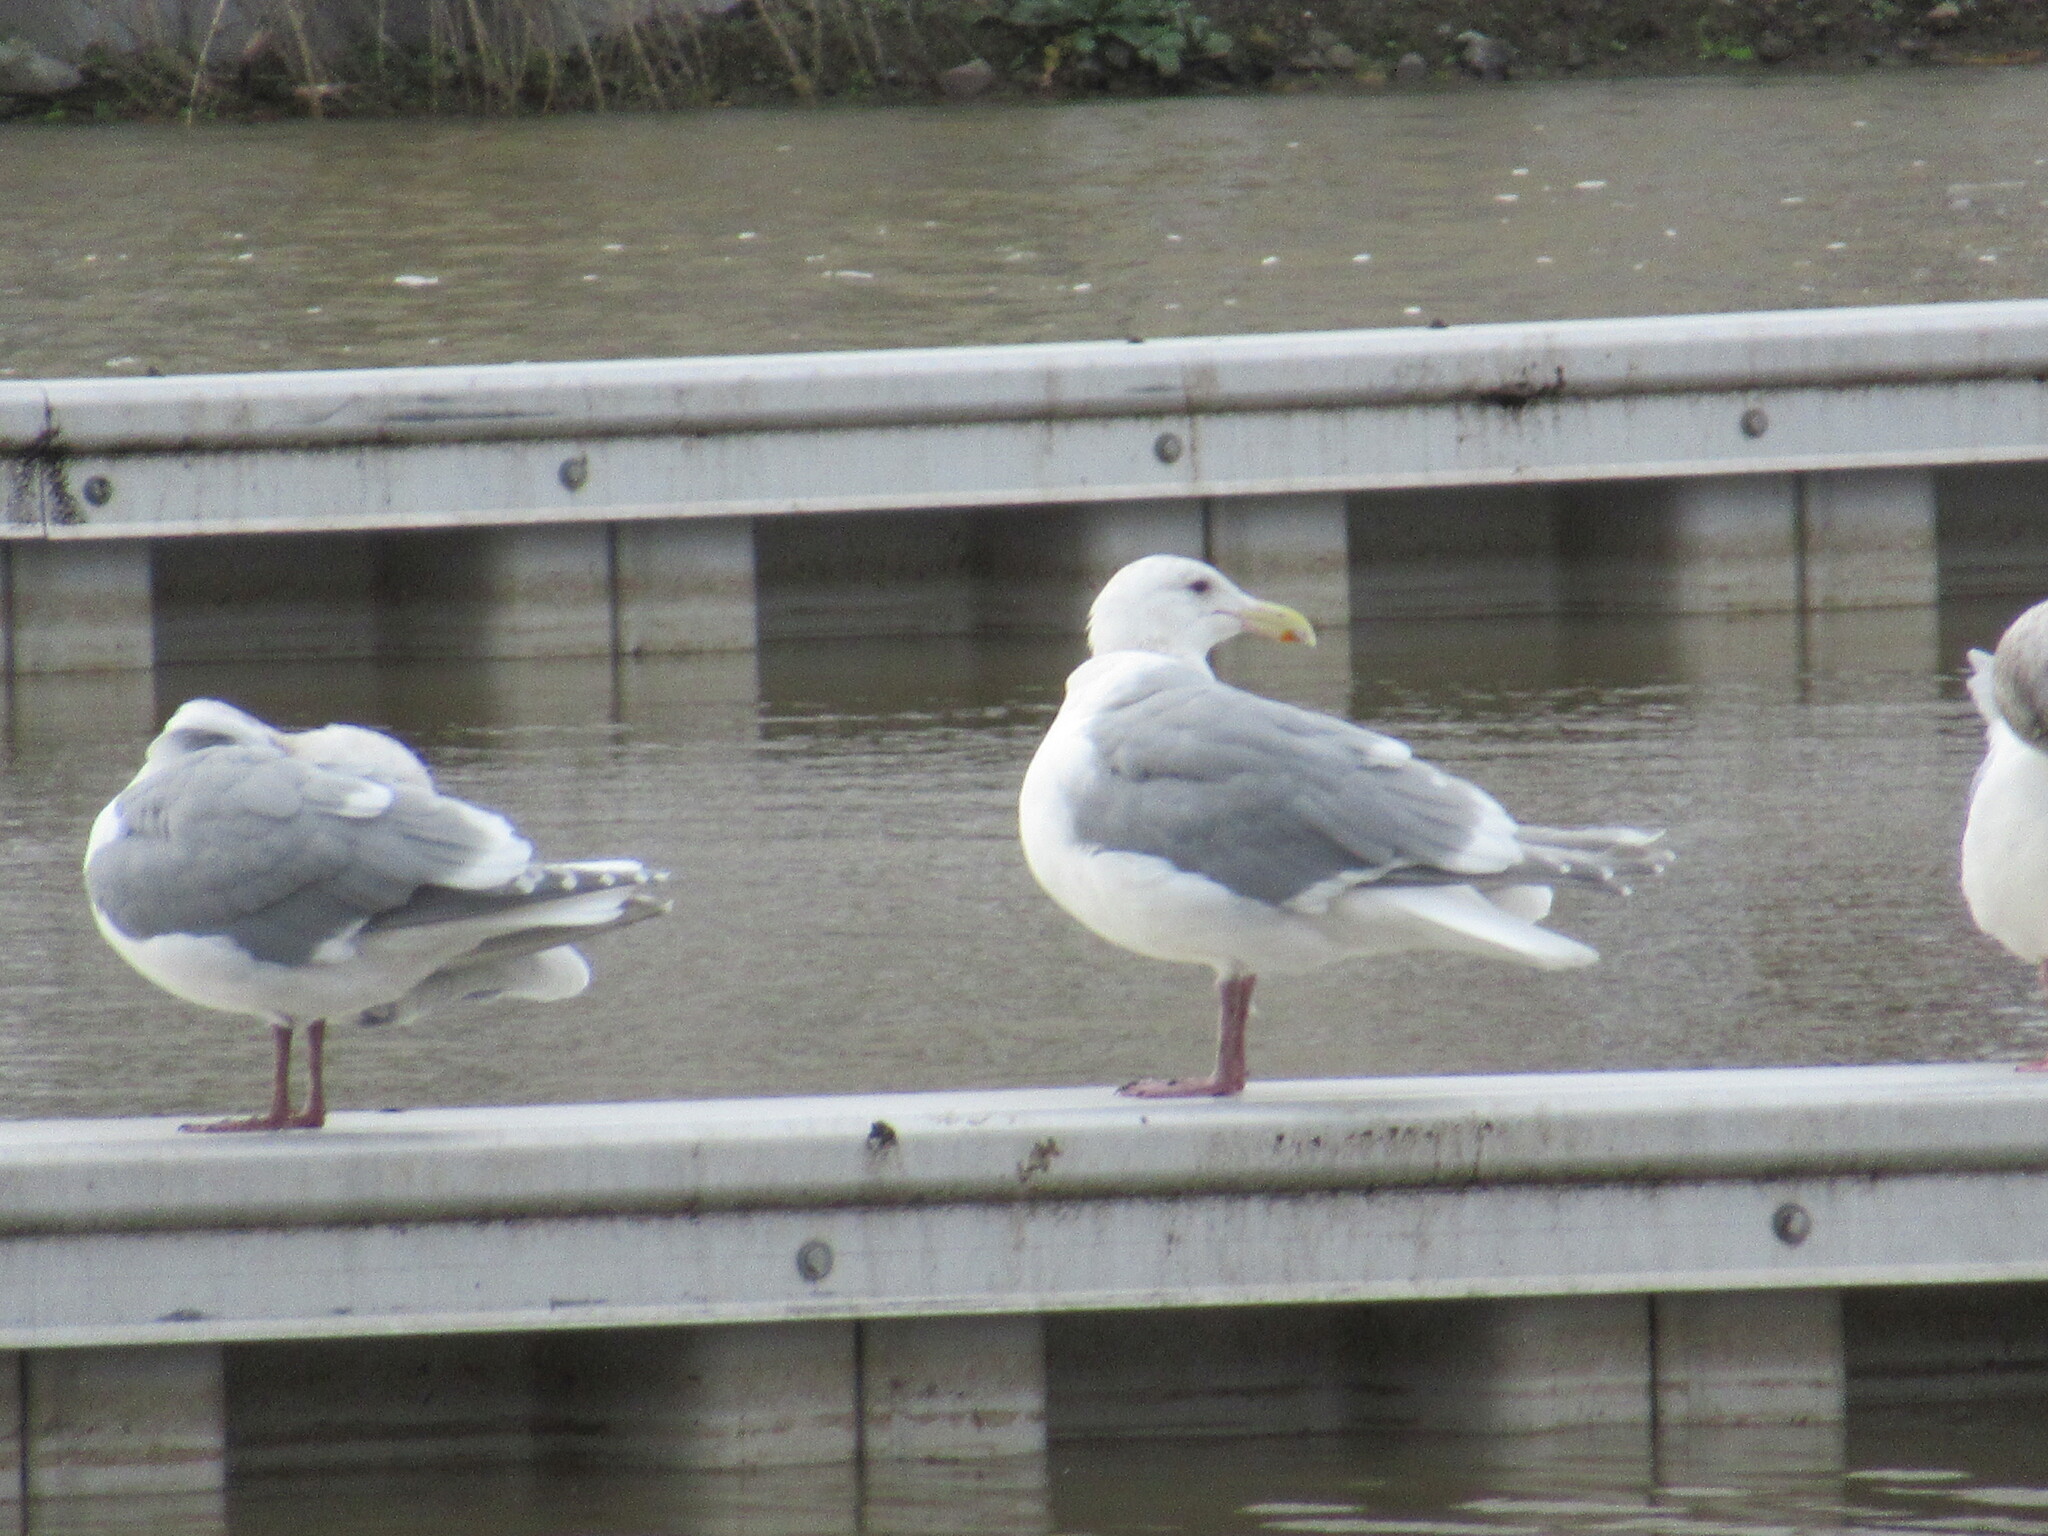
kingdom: Animalia
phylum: Chordata
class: Aves
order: Charadriiformes
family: Laridae
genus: Larus
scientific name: Larus glaucescens
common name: Glaucous-winged gull
